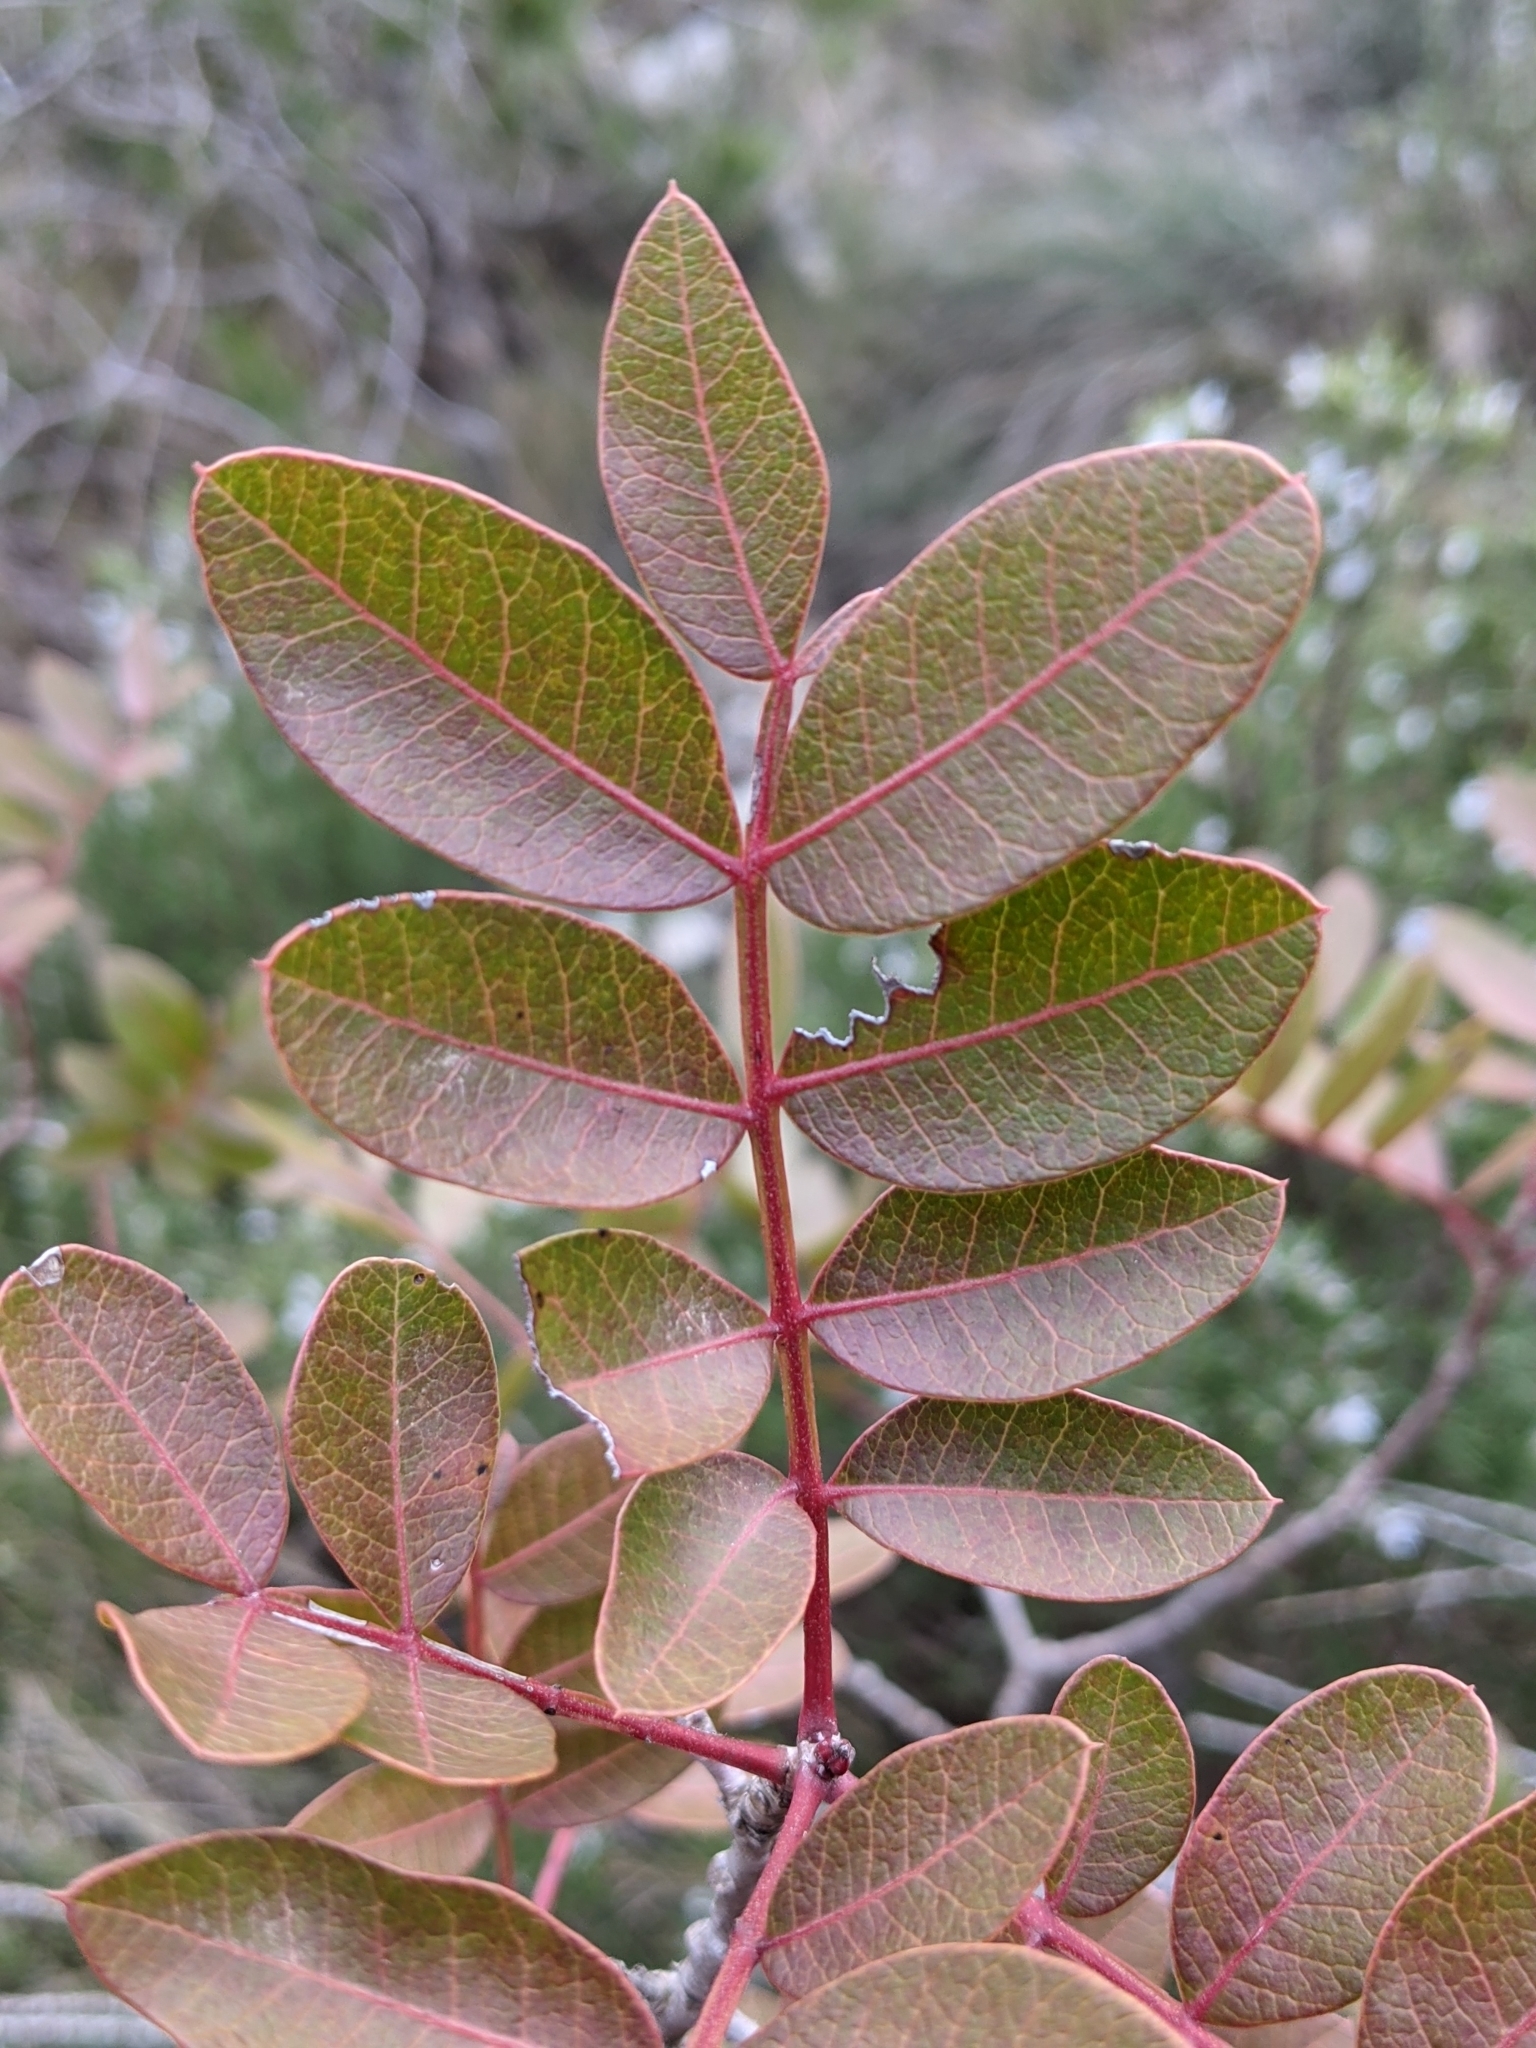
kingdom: Plantae
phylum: Tracheophyta
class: Magnoliopsida
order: Sapindales
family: Anacardiaceae
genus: Pistacia
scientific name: Pistacia saportae
